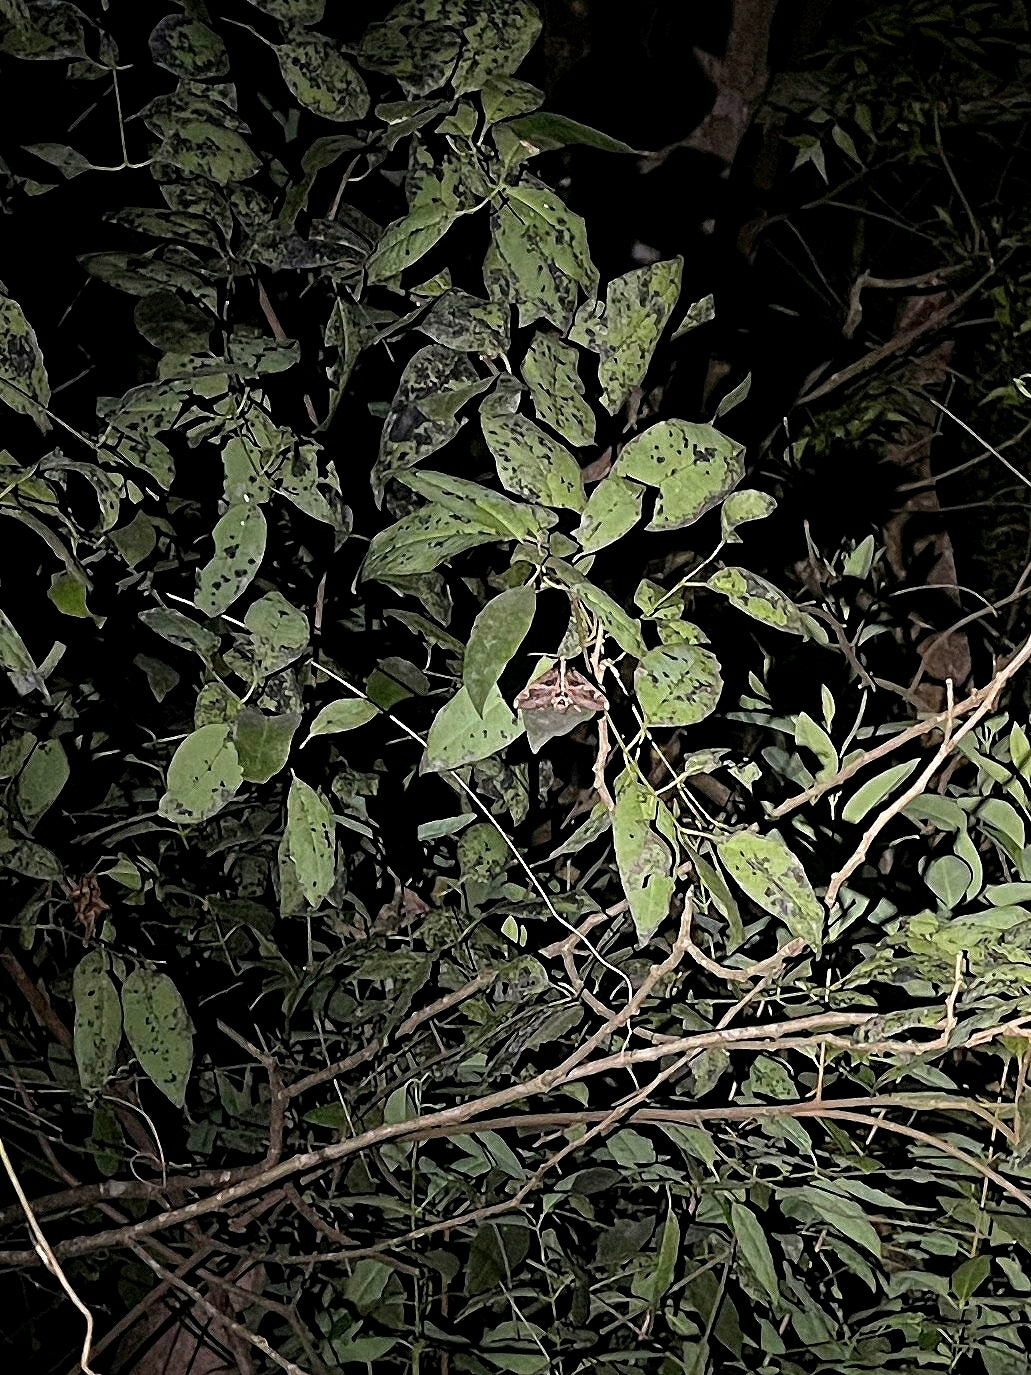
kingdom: Animalia
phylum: Arthropoda
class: Insecta
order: Lepidoptera
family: Erebidae
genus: Sphingomorpha
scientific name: Sphingomorpha chlorea
